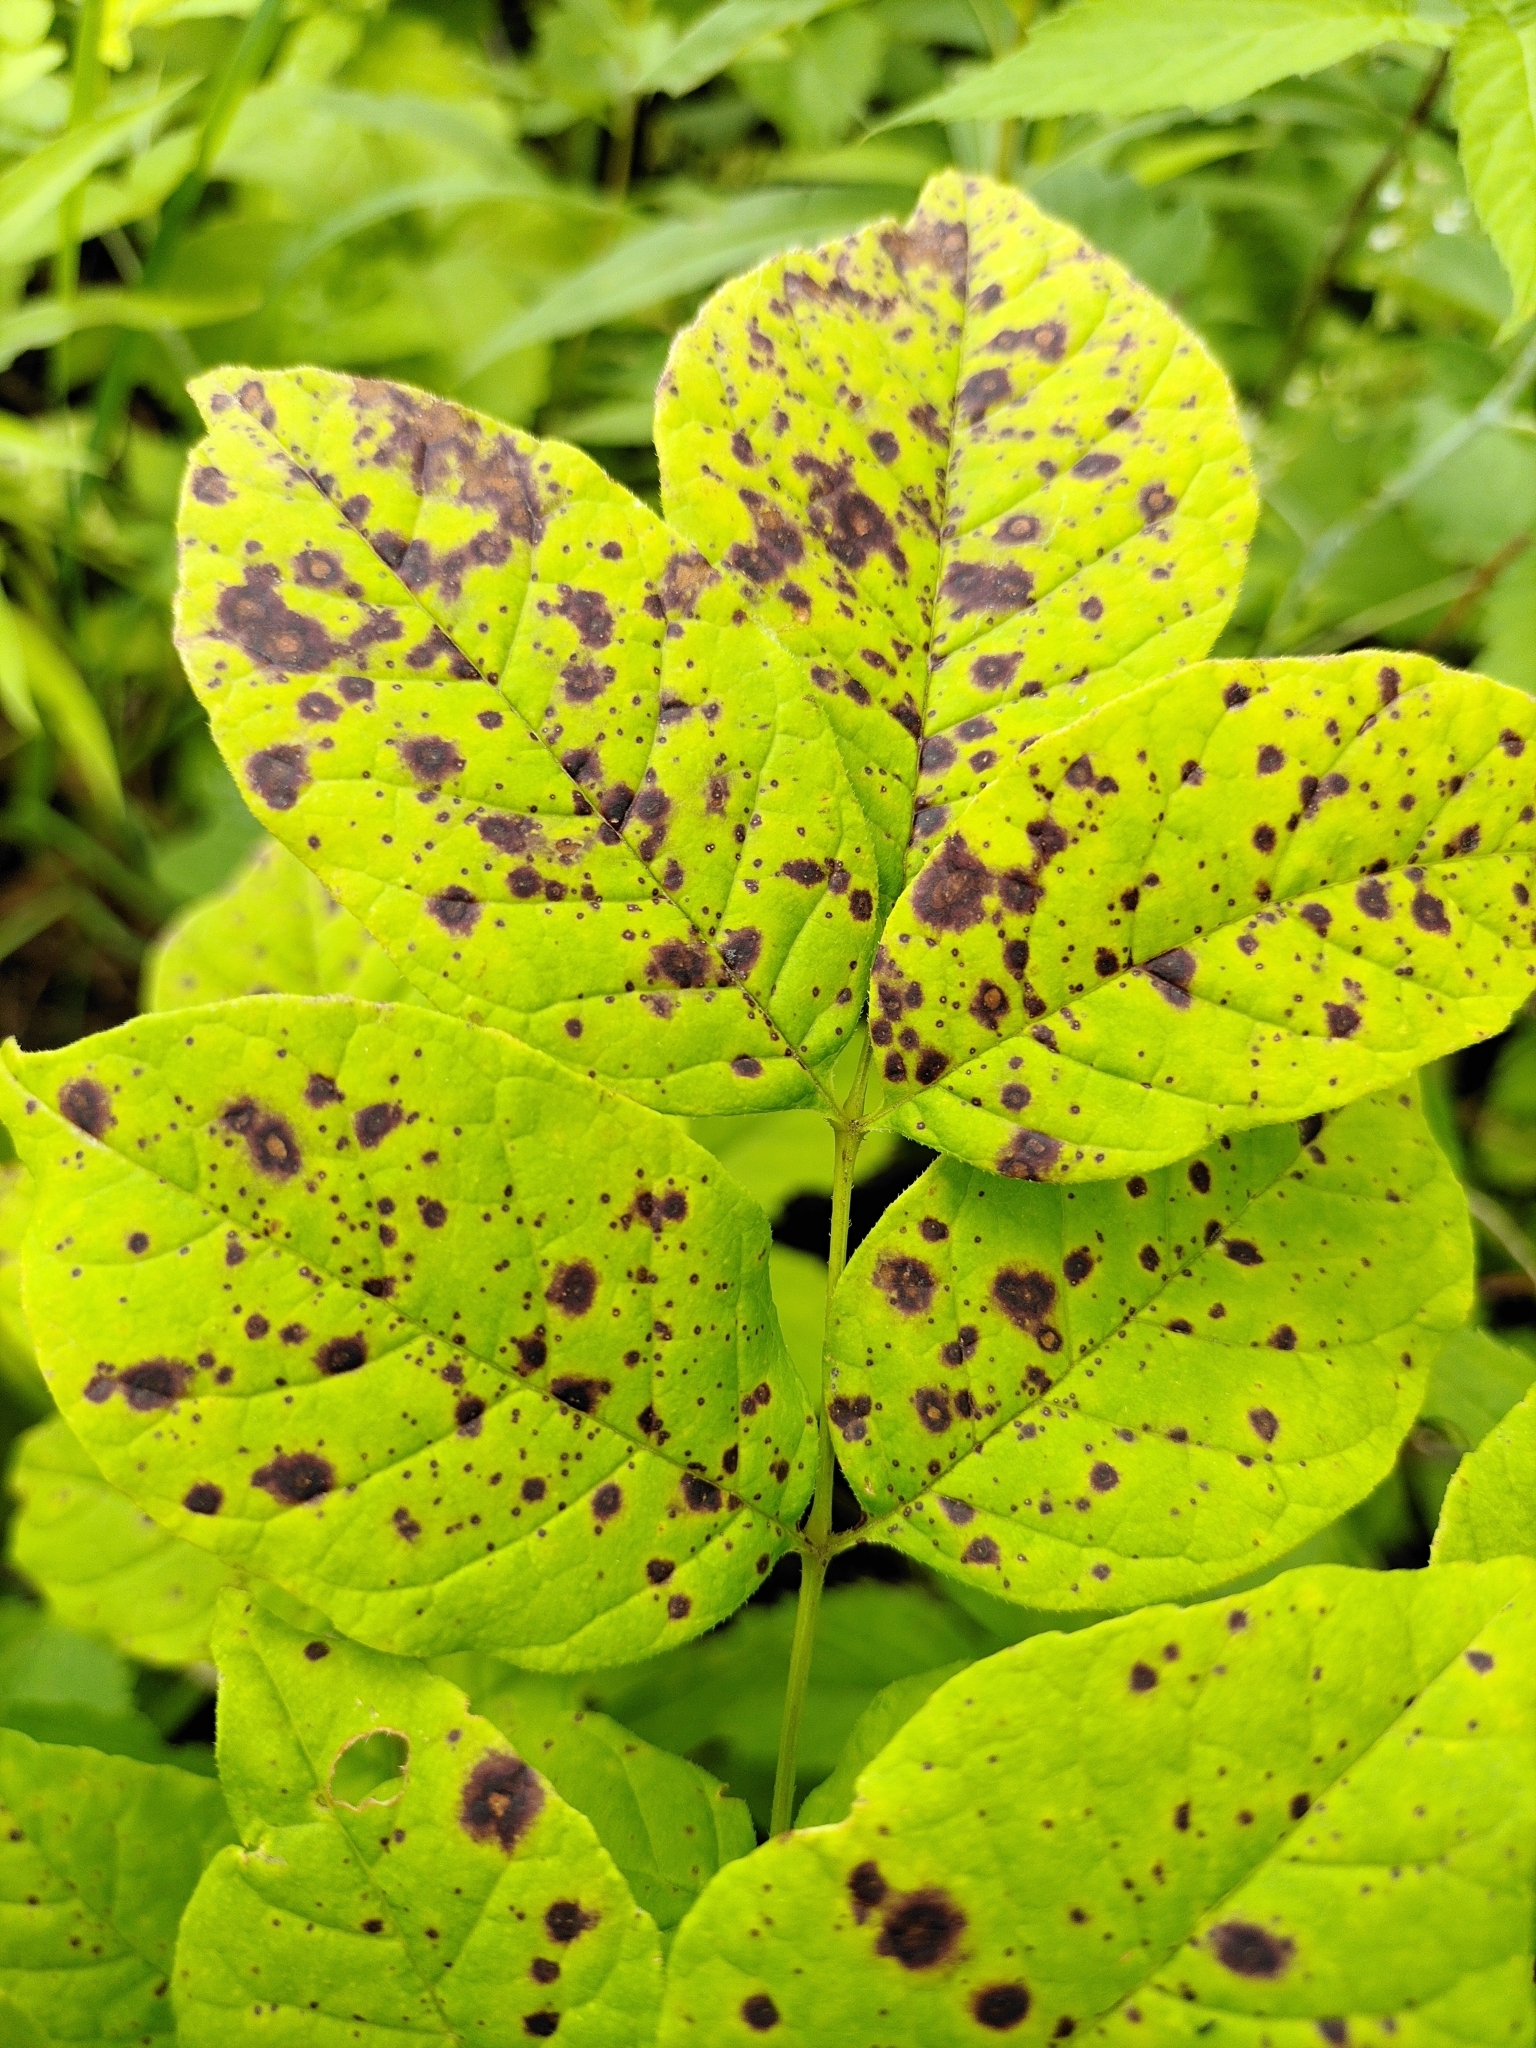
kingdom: Fungi
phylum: Ascomycota
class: Dothideomycetes
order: Mycosphaerellales
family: Mycosphaerellaceae
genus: Mycosphaerella
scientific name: Mycosphaerella fraxinicola
